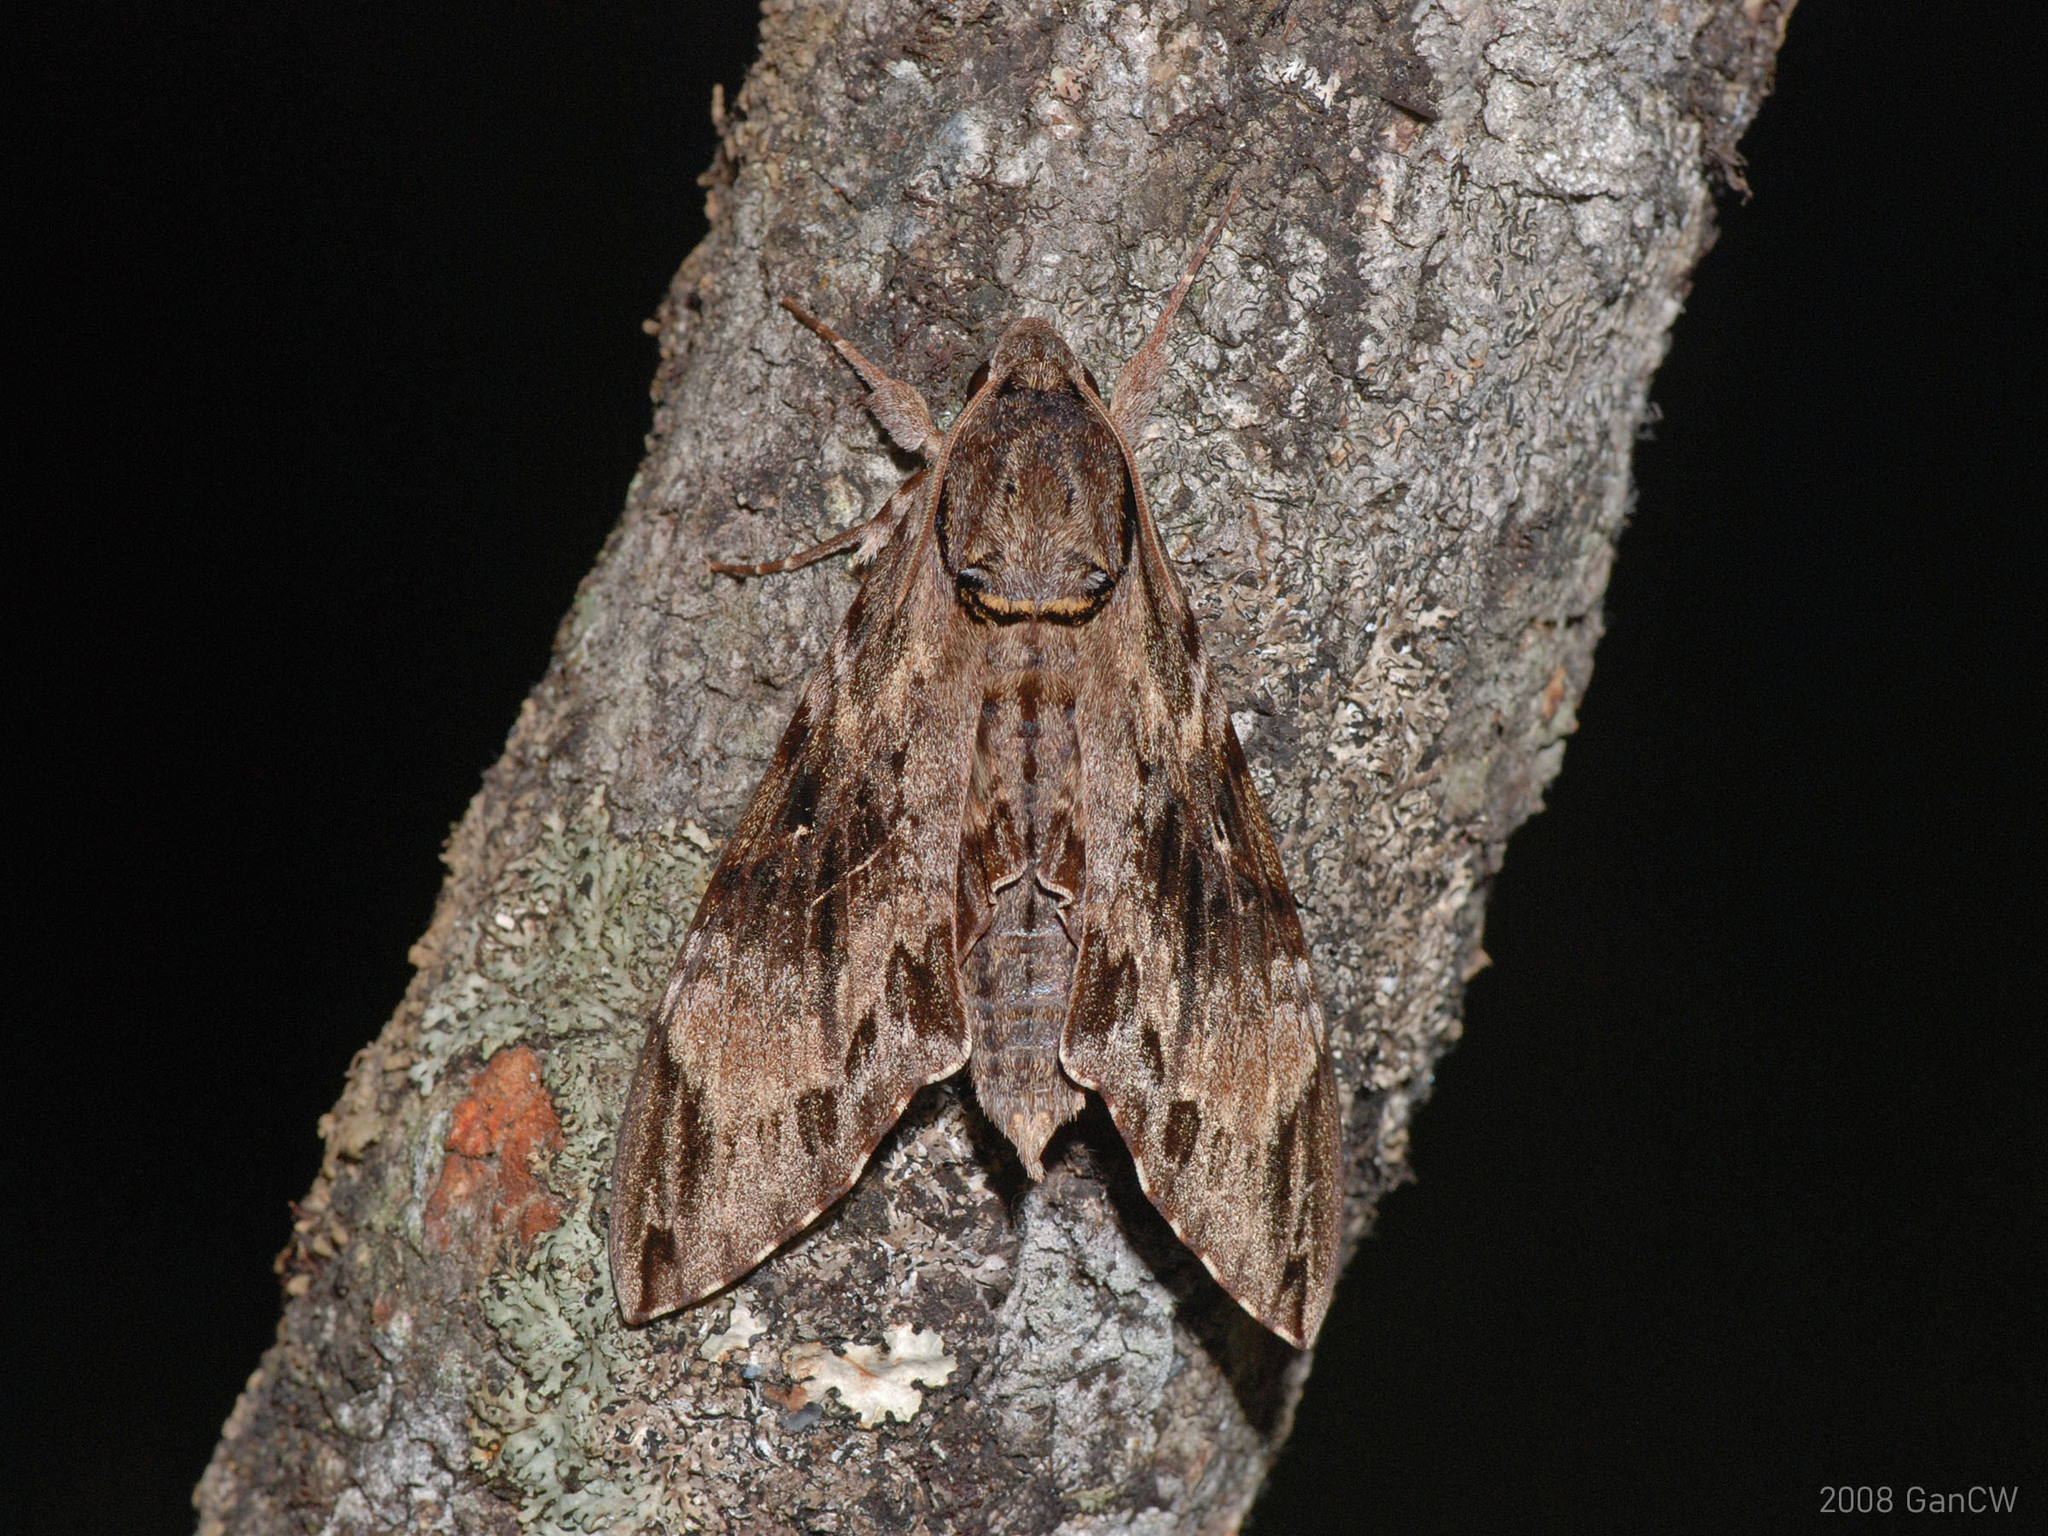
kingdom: Animalia
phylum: Arthropoda
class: Insecta
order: Lepidoptera
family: Sphingidae
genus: Psilogramma
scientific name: Psilogramma menephron
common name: Gray hawk moth
